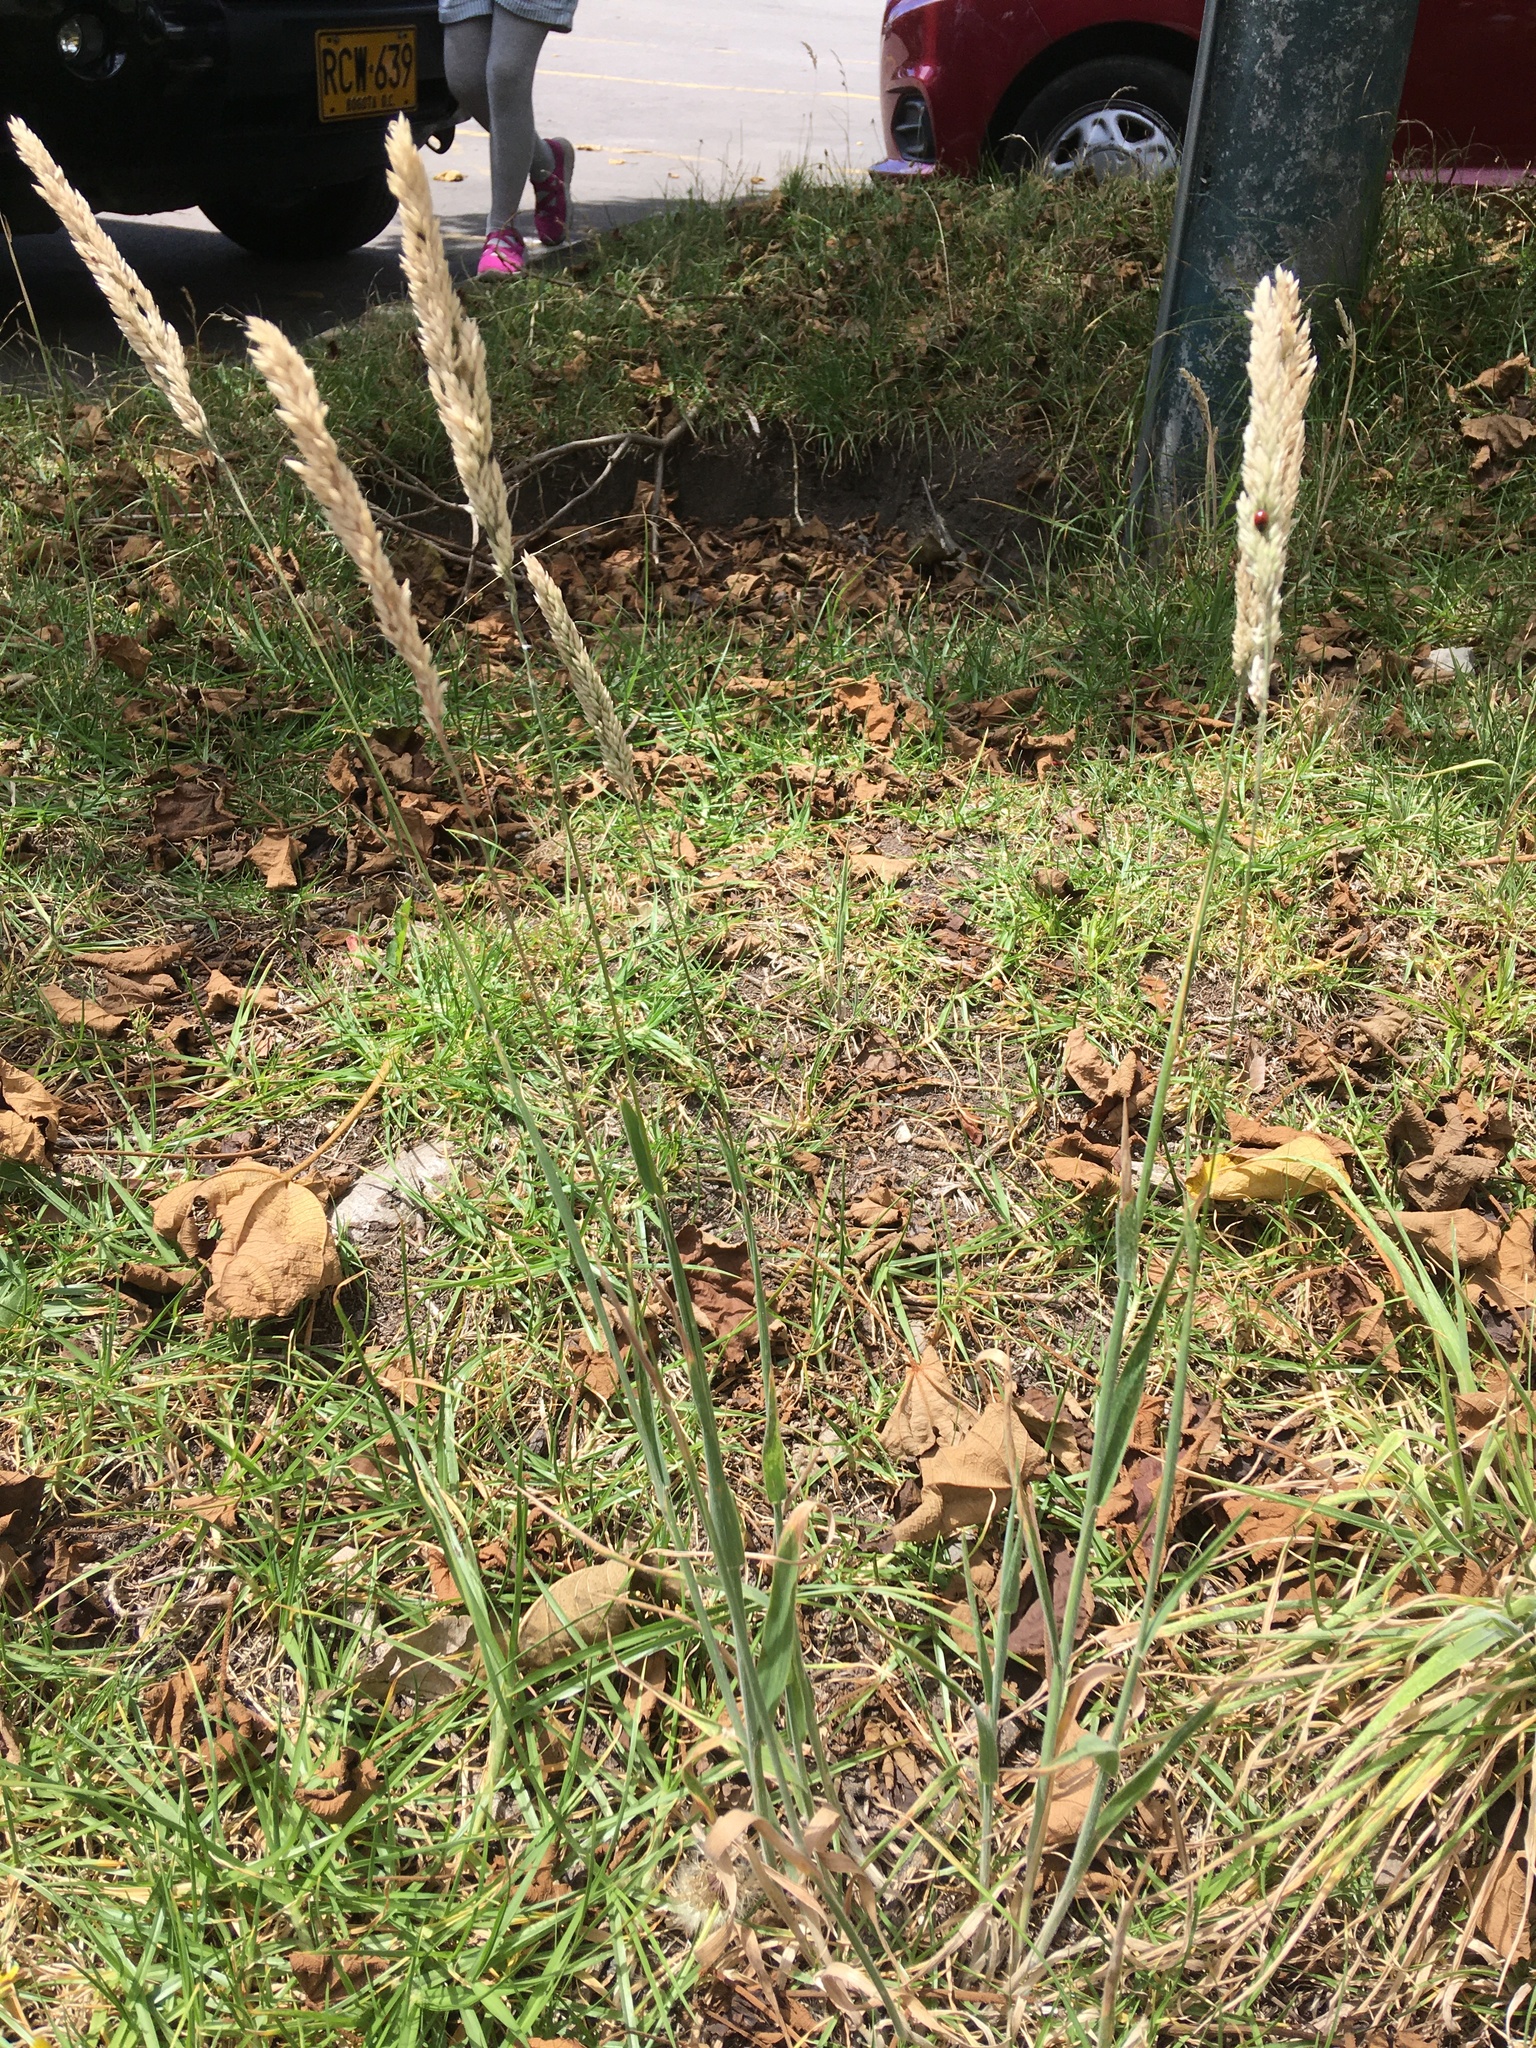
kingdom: Plantae
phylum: Tracheophyta
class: Liliopsida
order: Poales
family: Poaceae
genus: Holcus
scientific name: Holcus lanatus
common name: Yorkshire-fog
